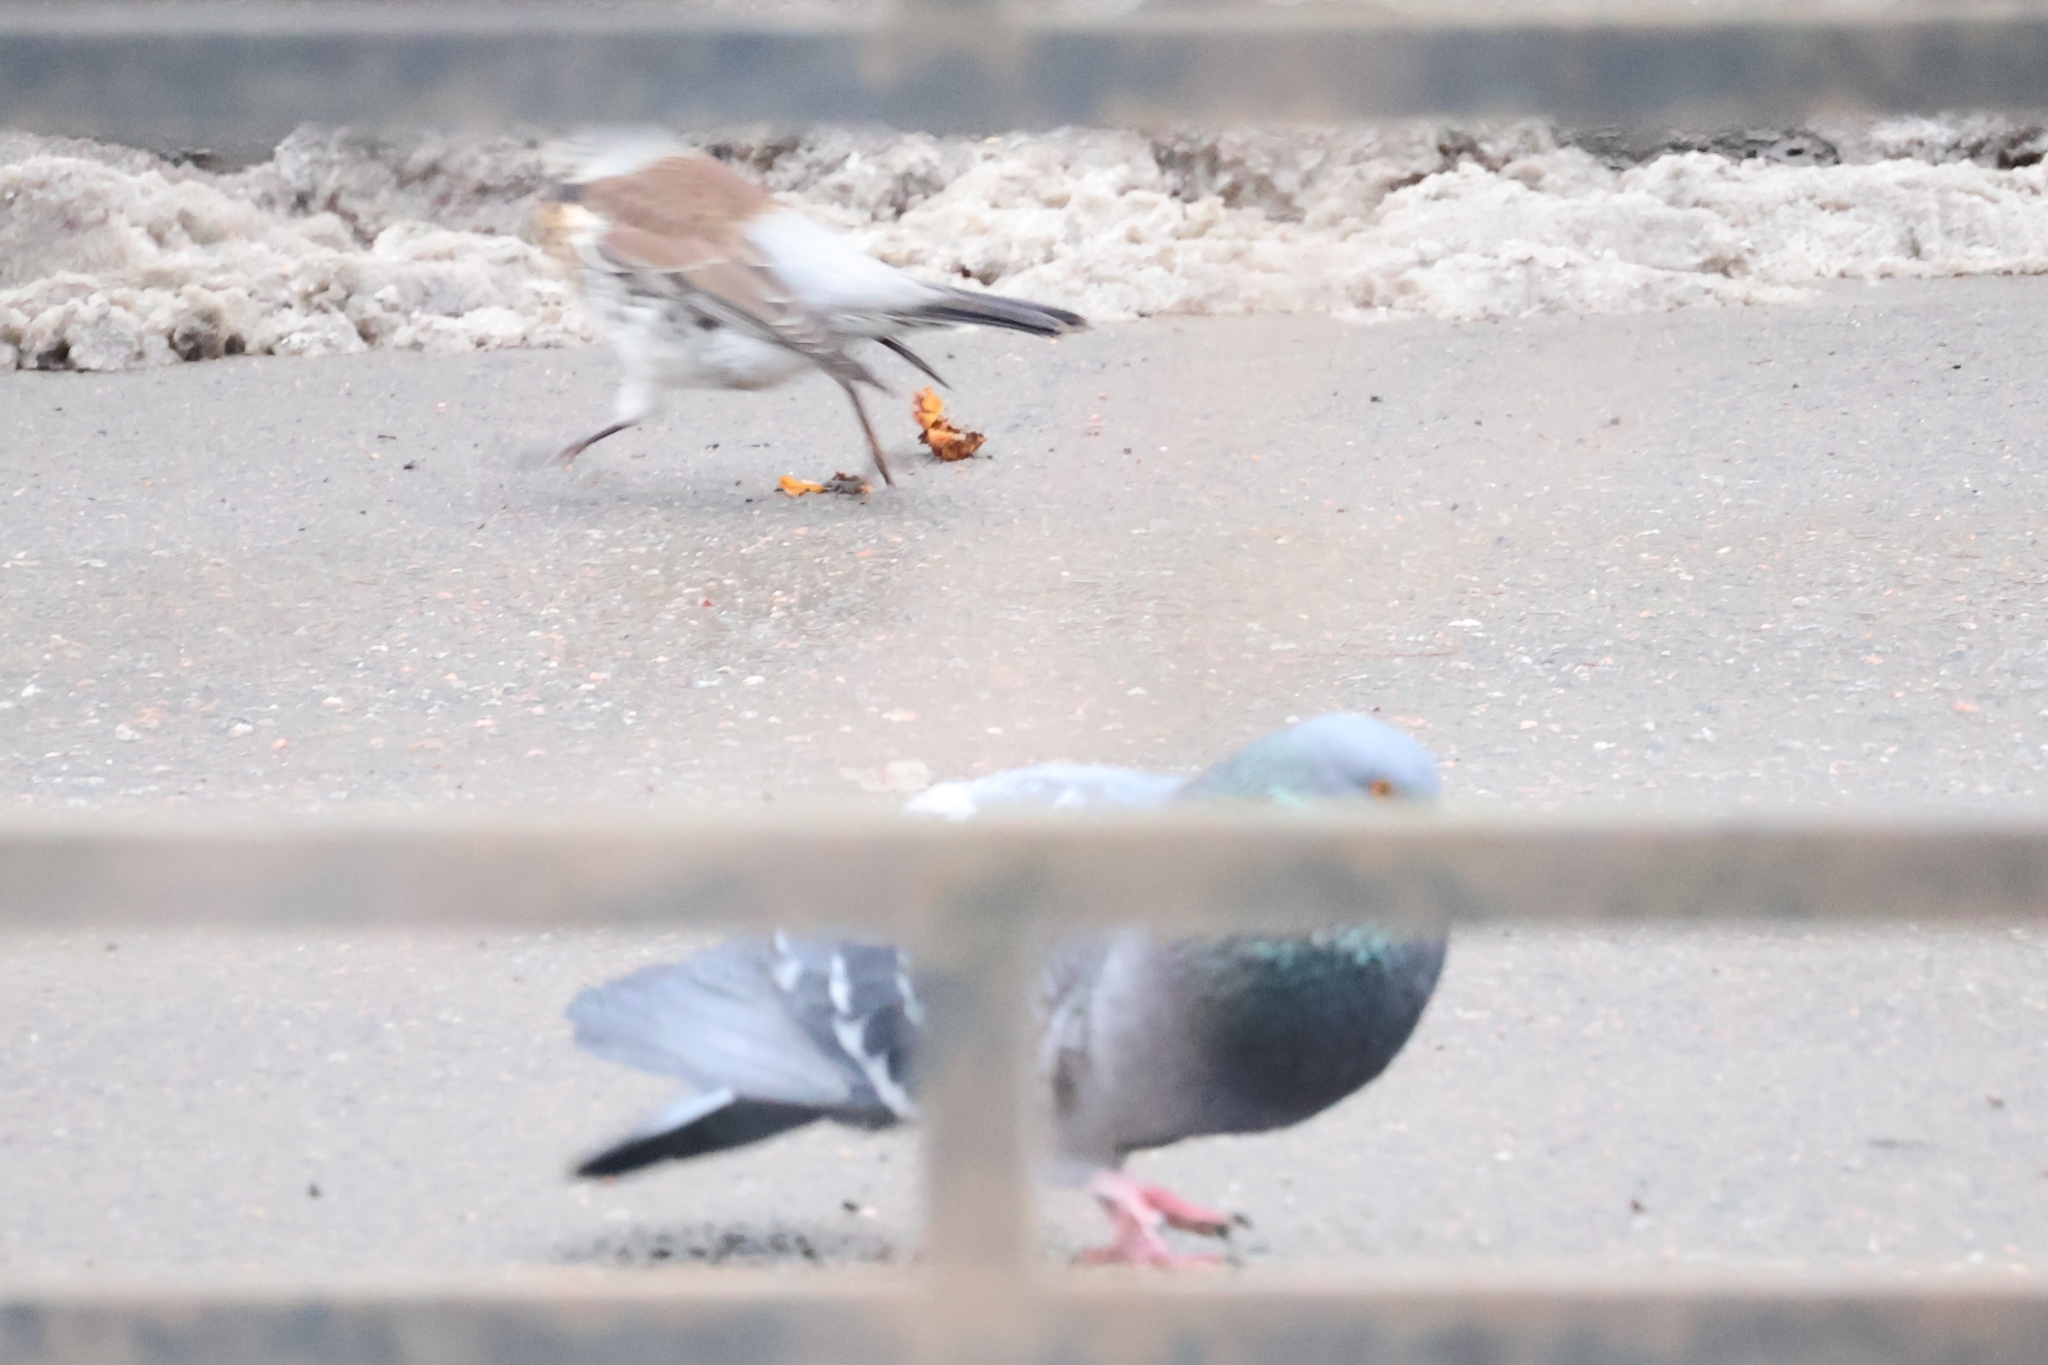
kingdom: Animalia
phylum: Chordata
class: Aves
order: Columbiformes
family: Columbidae
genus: Columba
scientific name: Columba livia
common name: Rock pigeon
